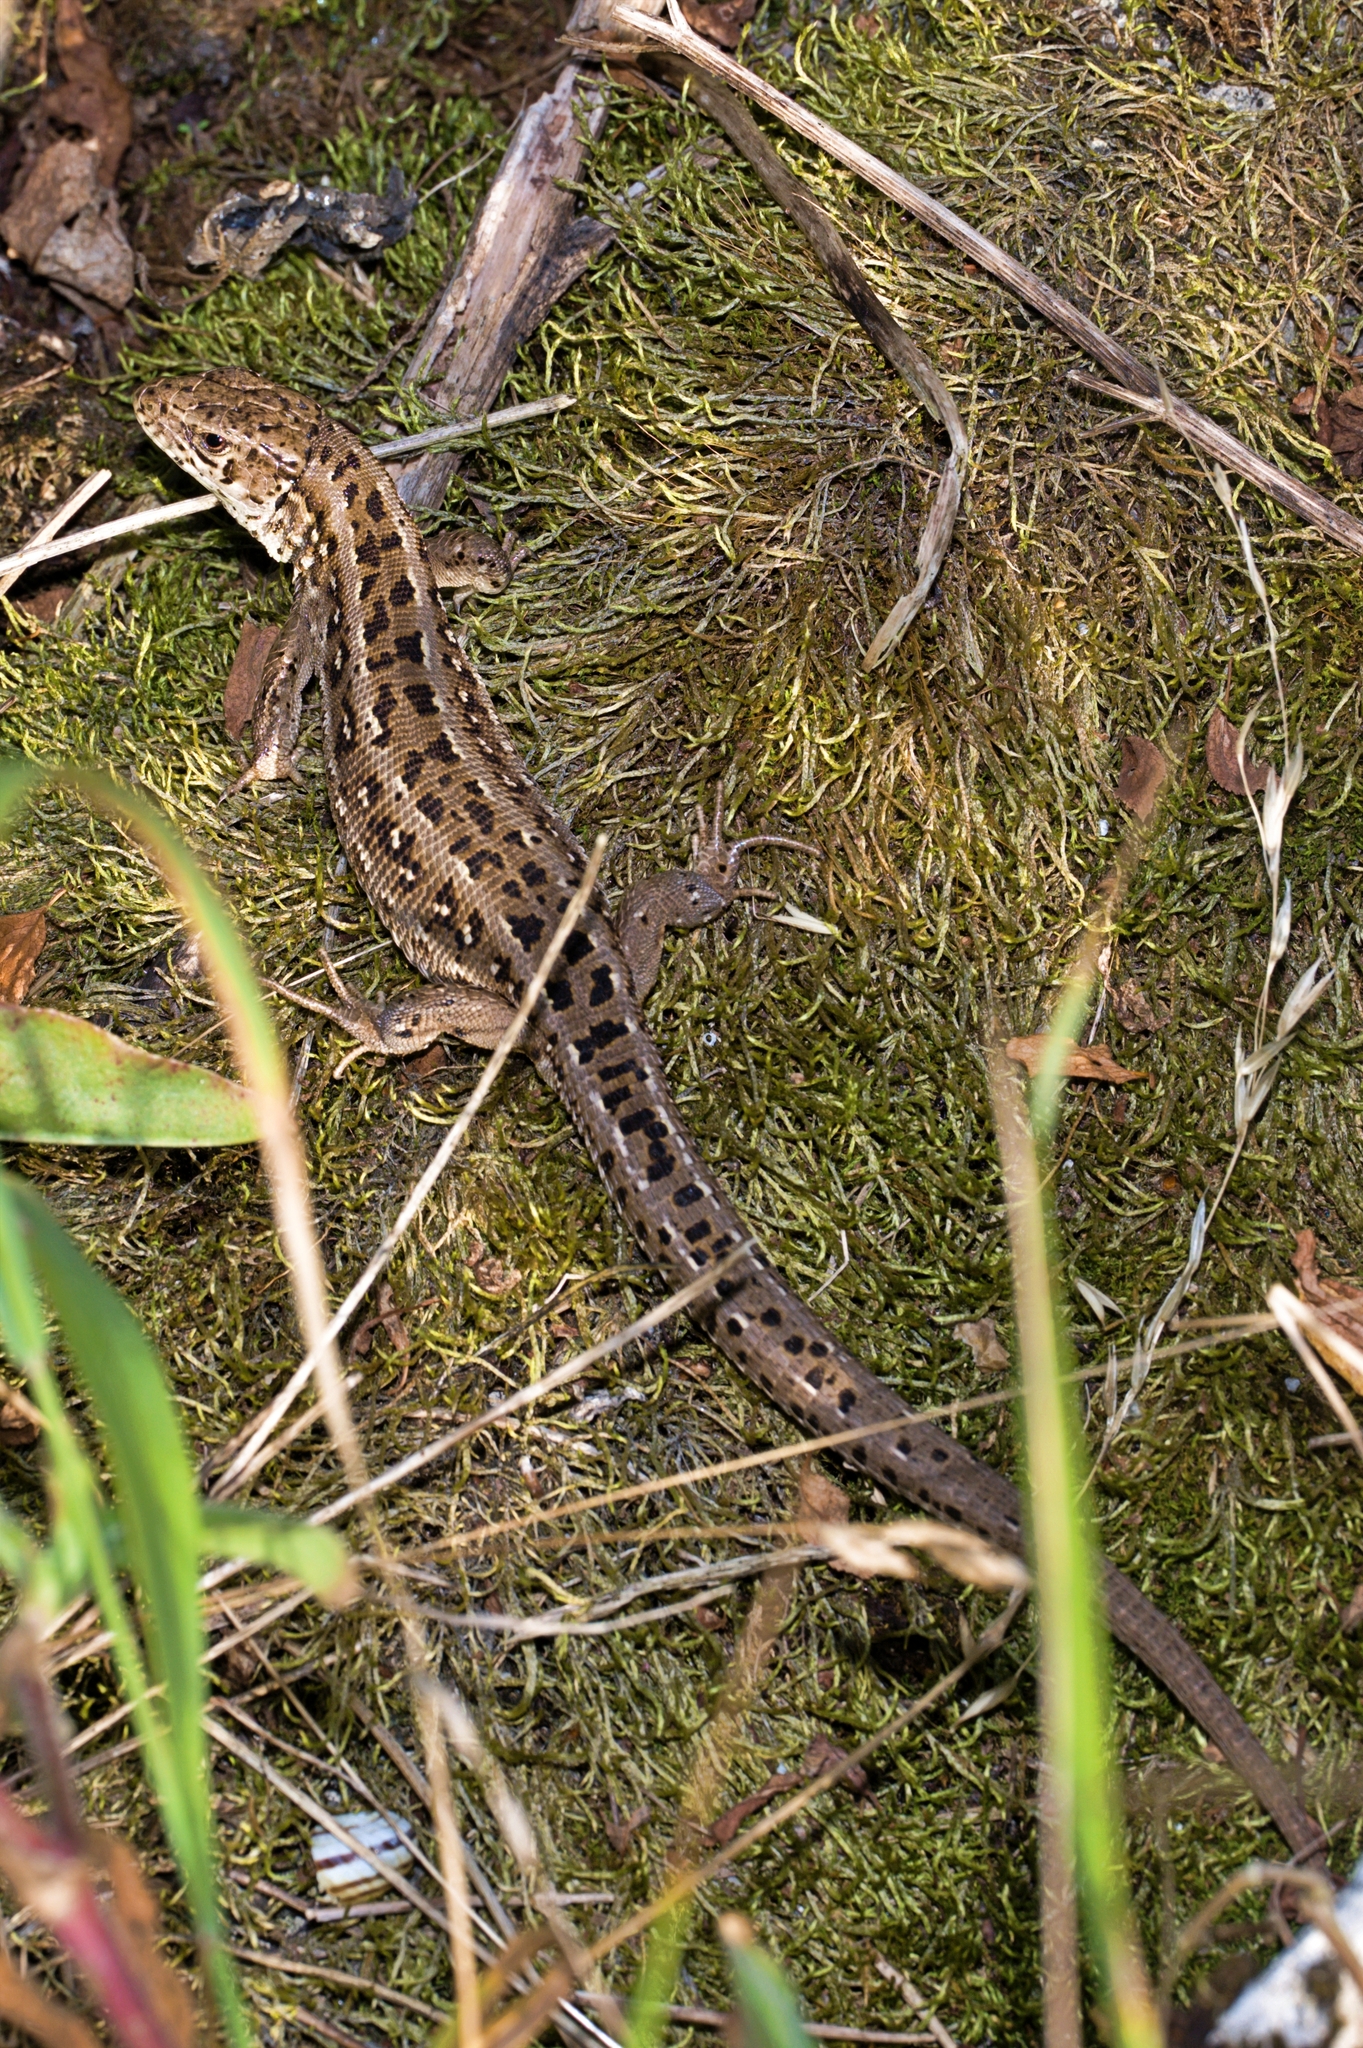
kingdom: Animalia
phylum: Chordata
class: Squamata
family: Lacertidae
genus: Lacerta
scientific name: Lacerta agilis
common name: Sand lizard
